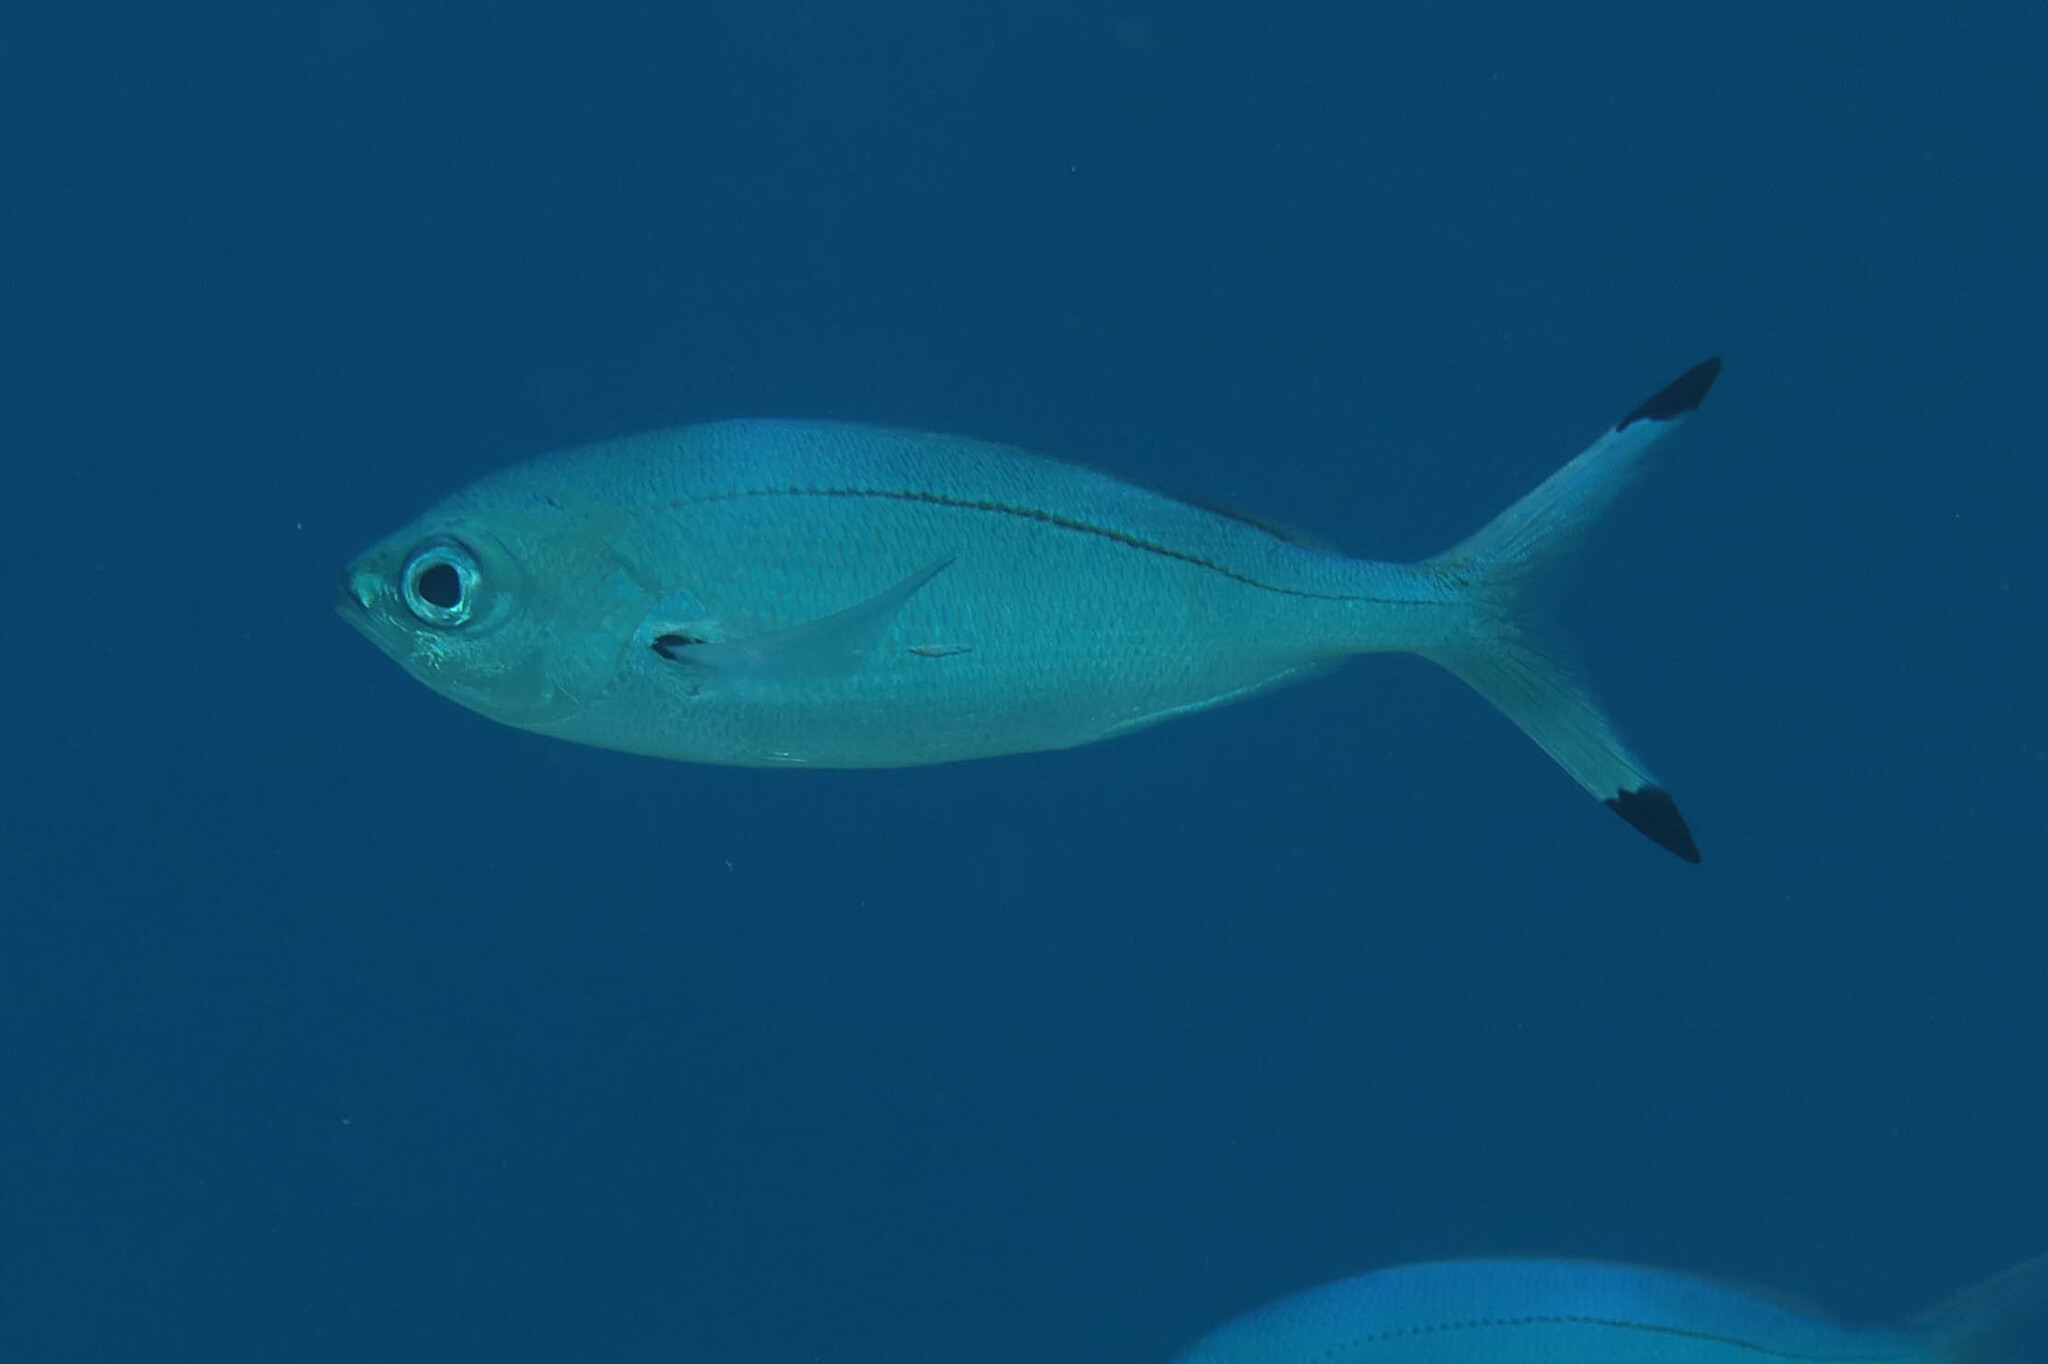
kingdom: Animalia
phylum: Chordata
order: Perciformes
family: Caesionidae
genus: Caesio
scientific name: Caesio lunaris
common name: Blue fusilier
